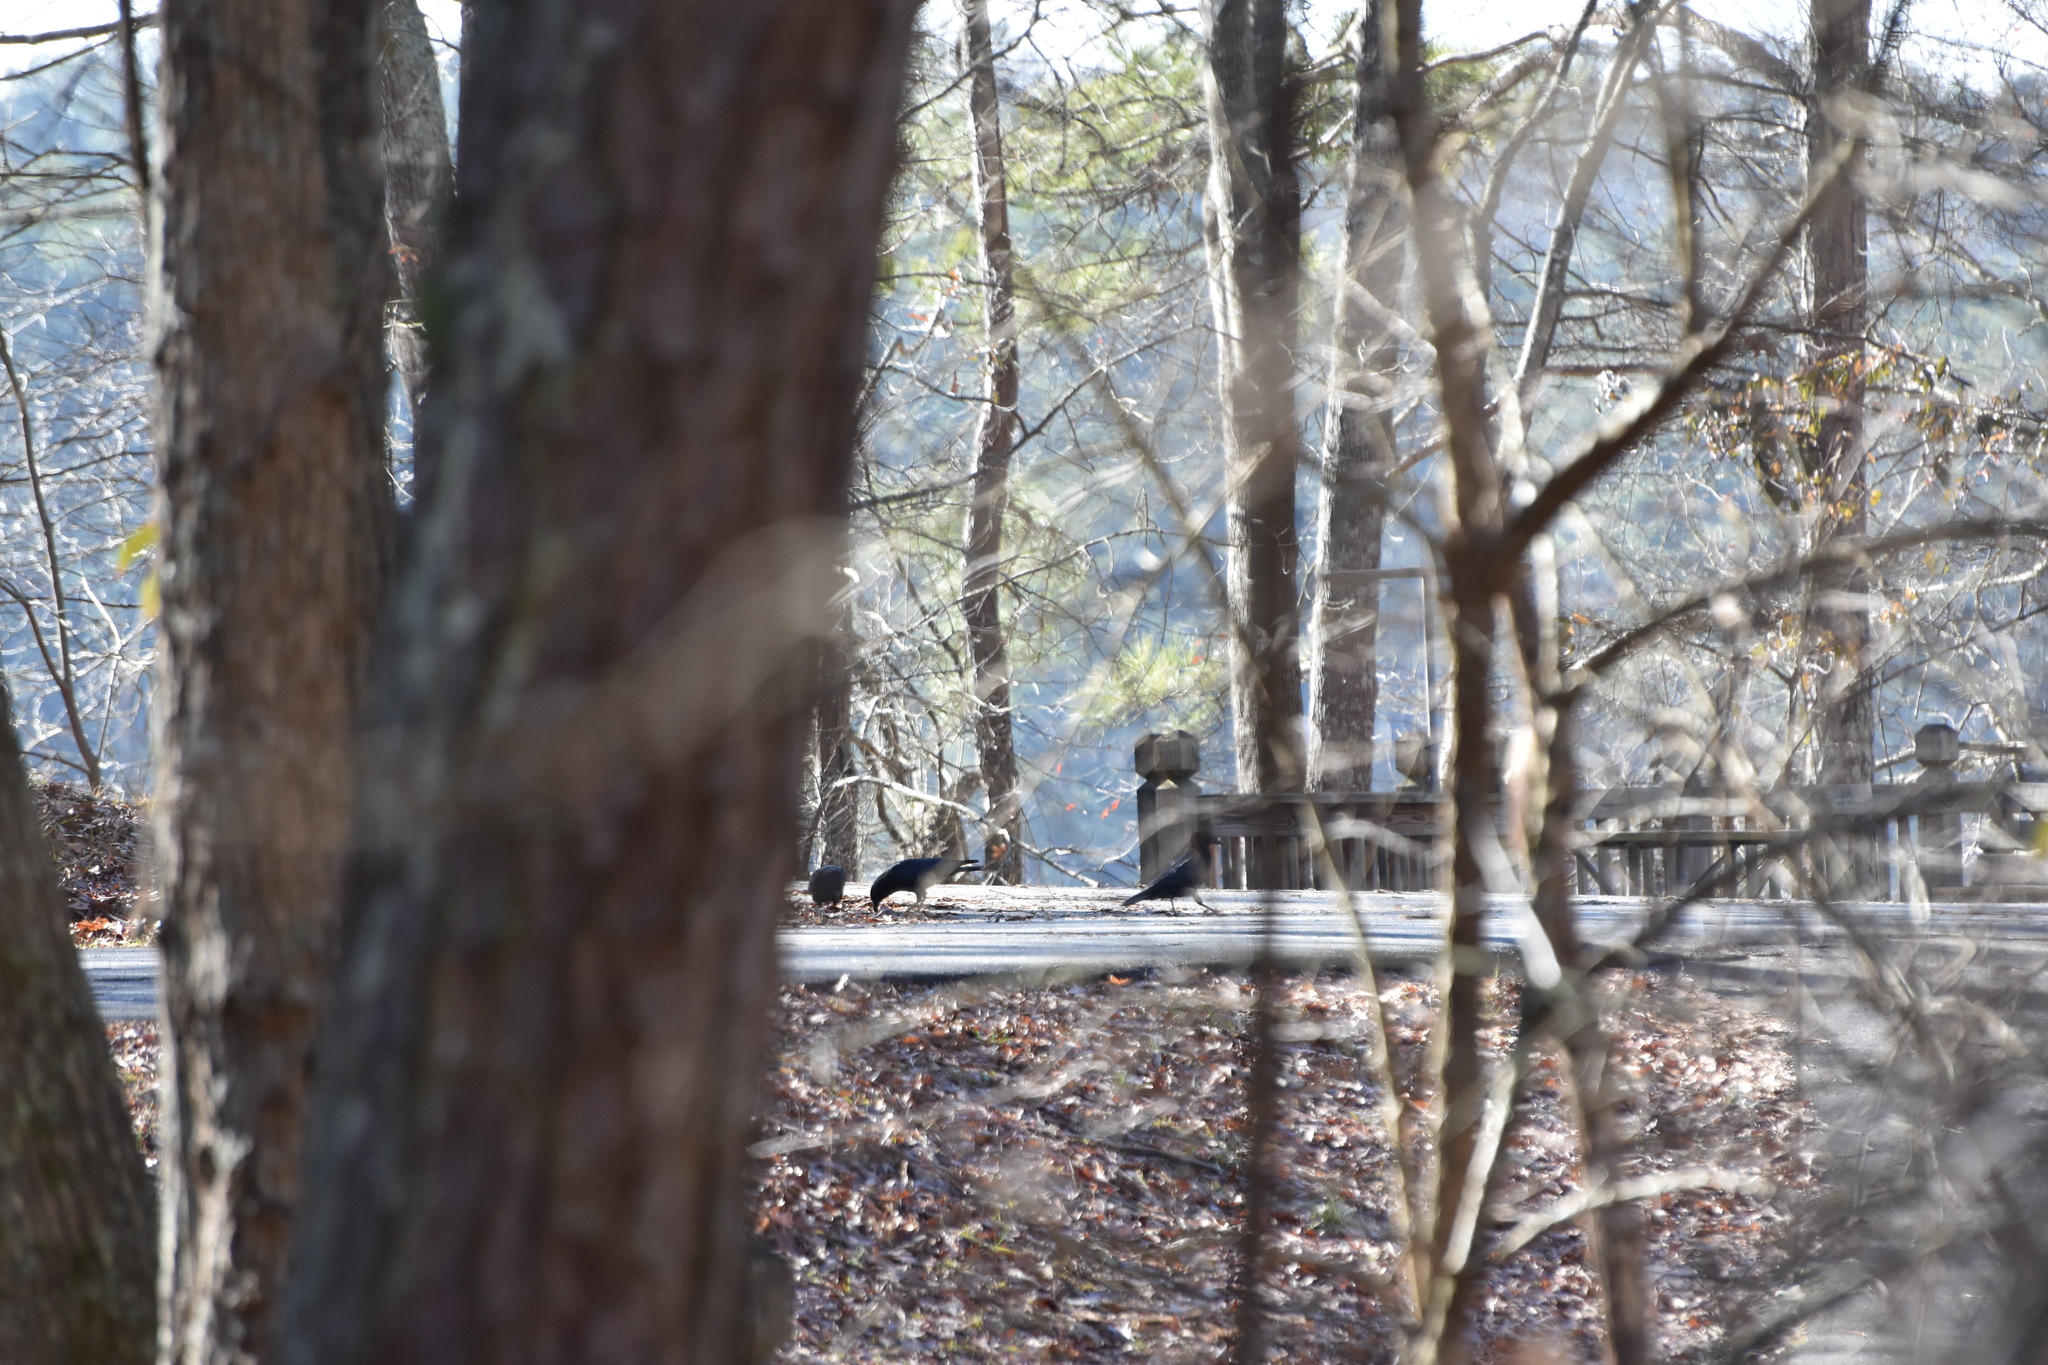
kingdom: Animalia
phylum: Chordata
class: Aves
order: Passeriformes
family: Corvidae
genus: Corvus
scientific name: Corvus brachyrhynchos
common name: American crow
